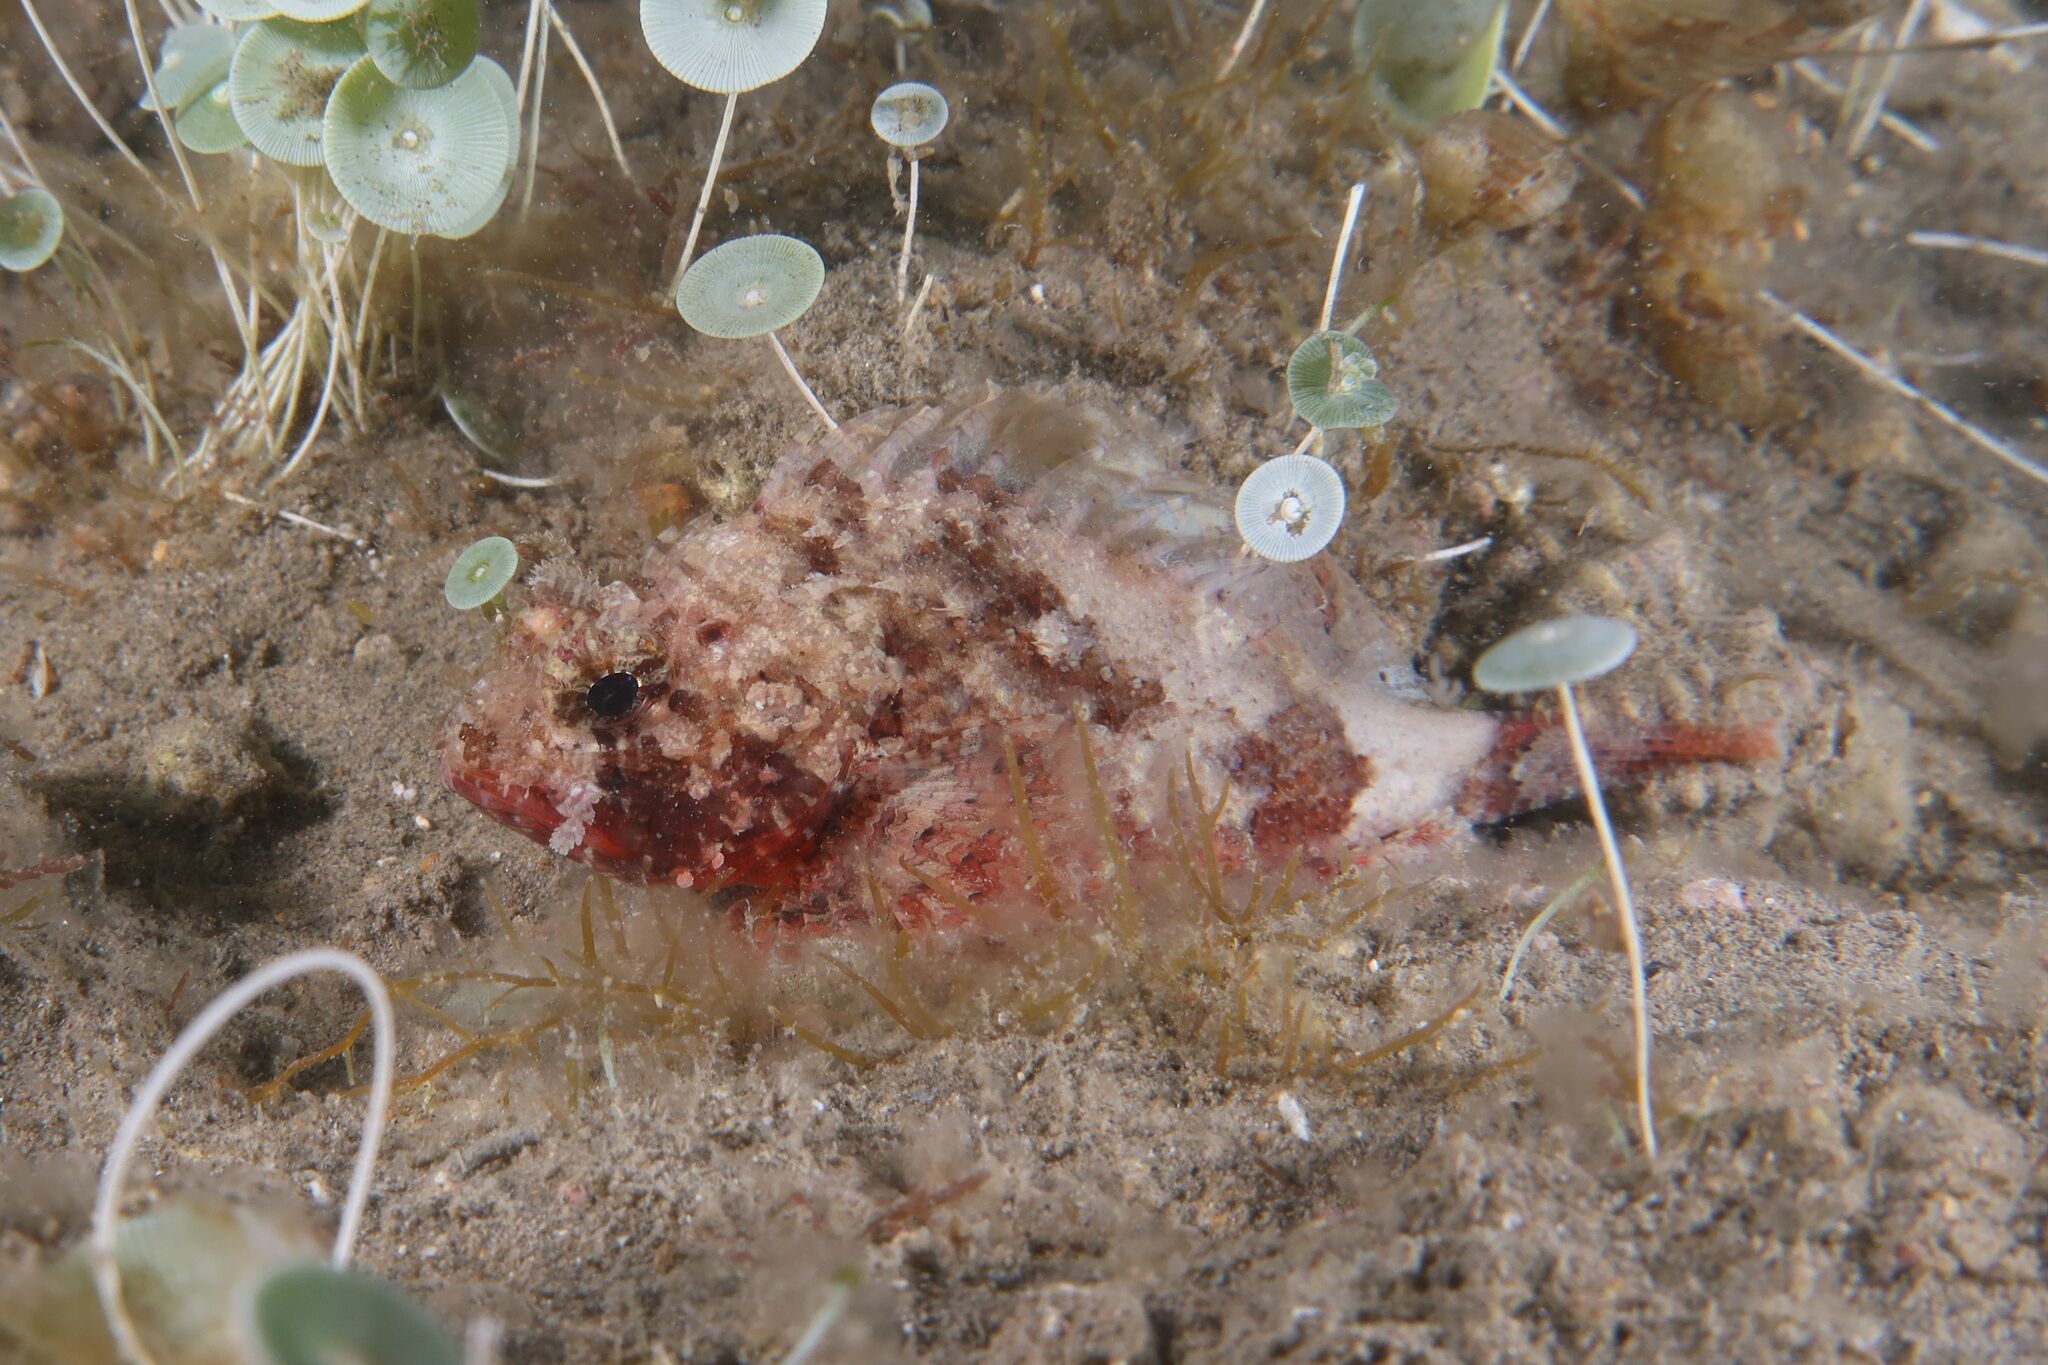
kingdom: Animalia
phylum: Chordata
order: Scorpaeniformes
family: Scorpaenidae
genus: Scorpaena
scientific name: Scorpaena notata
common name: Small red scorpionfish
